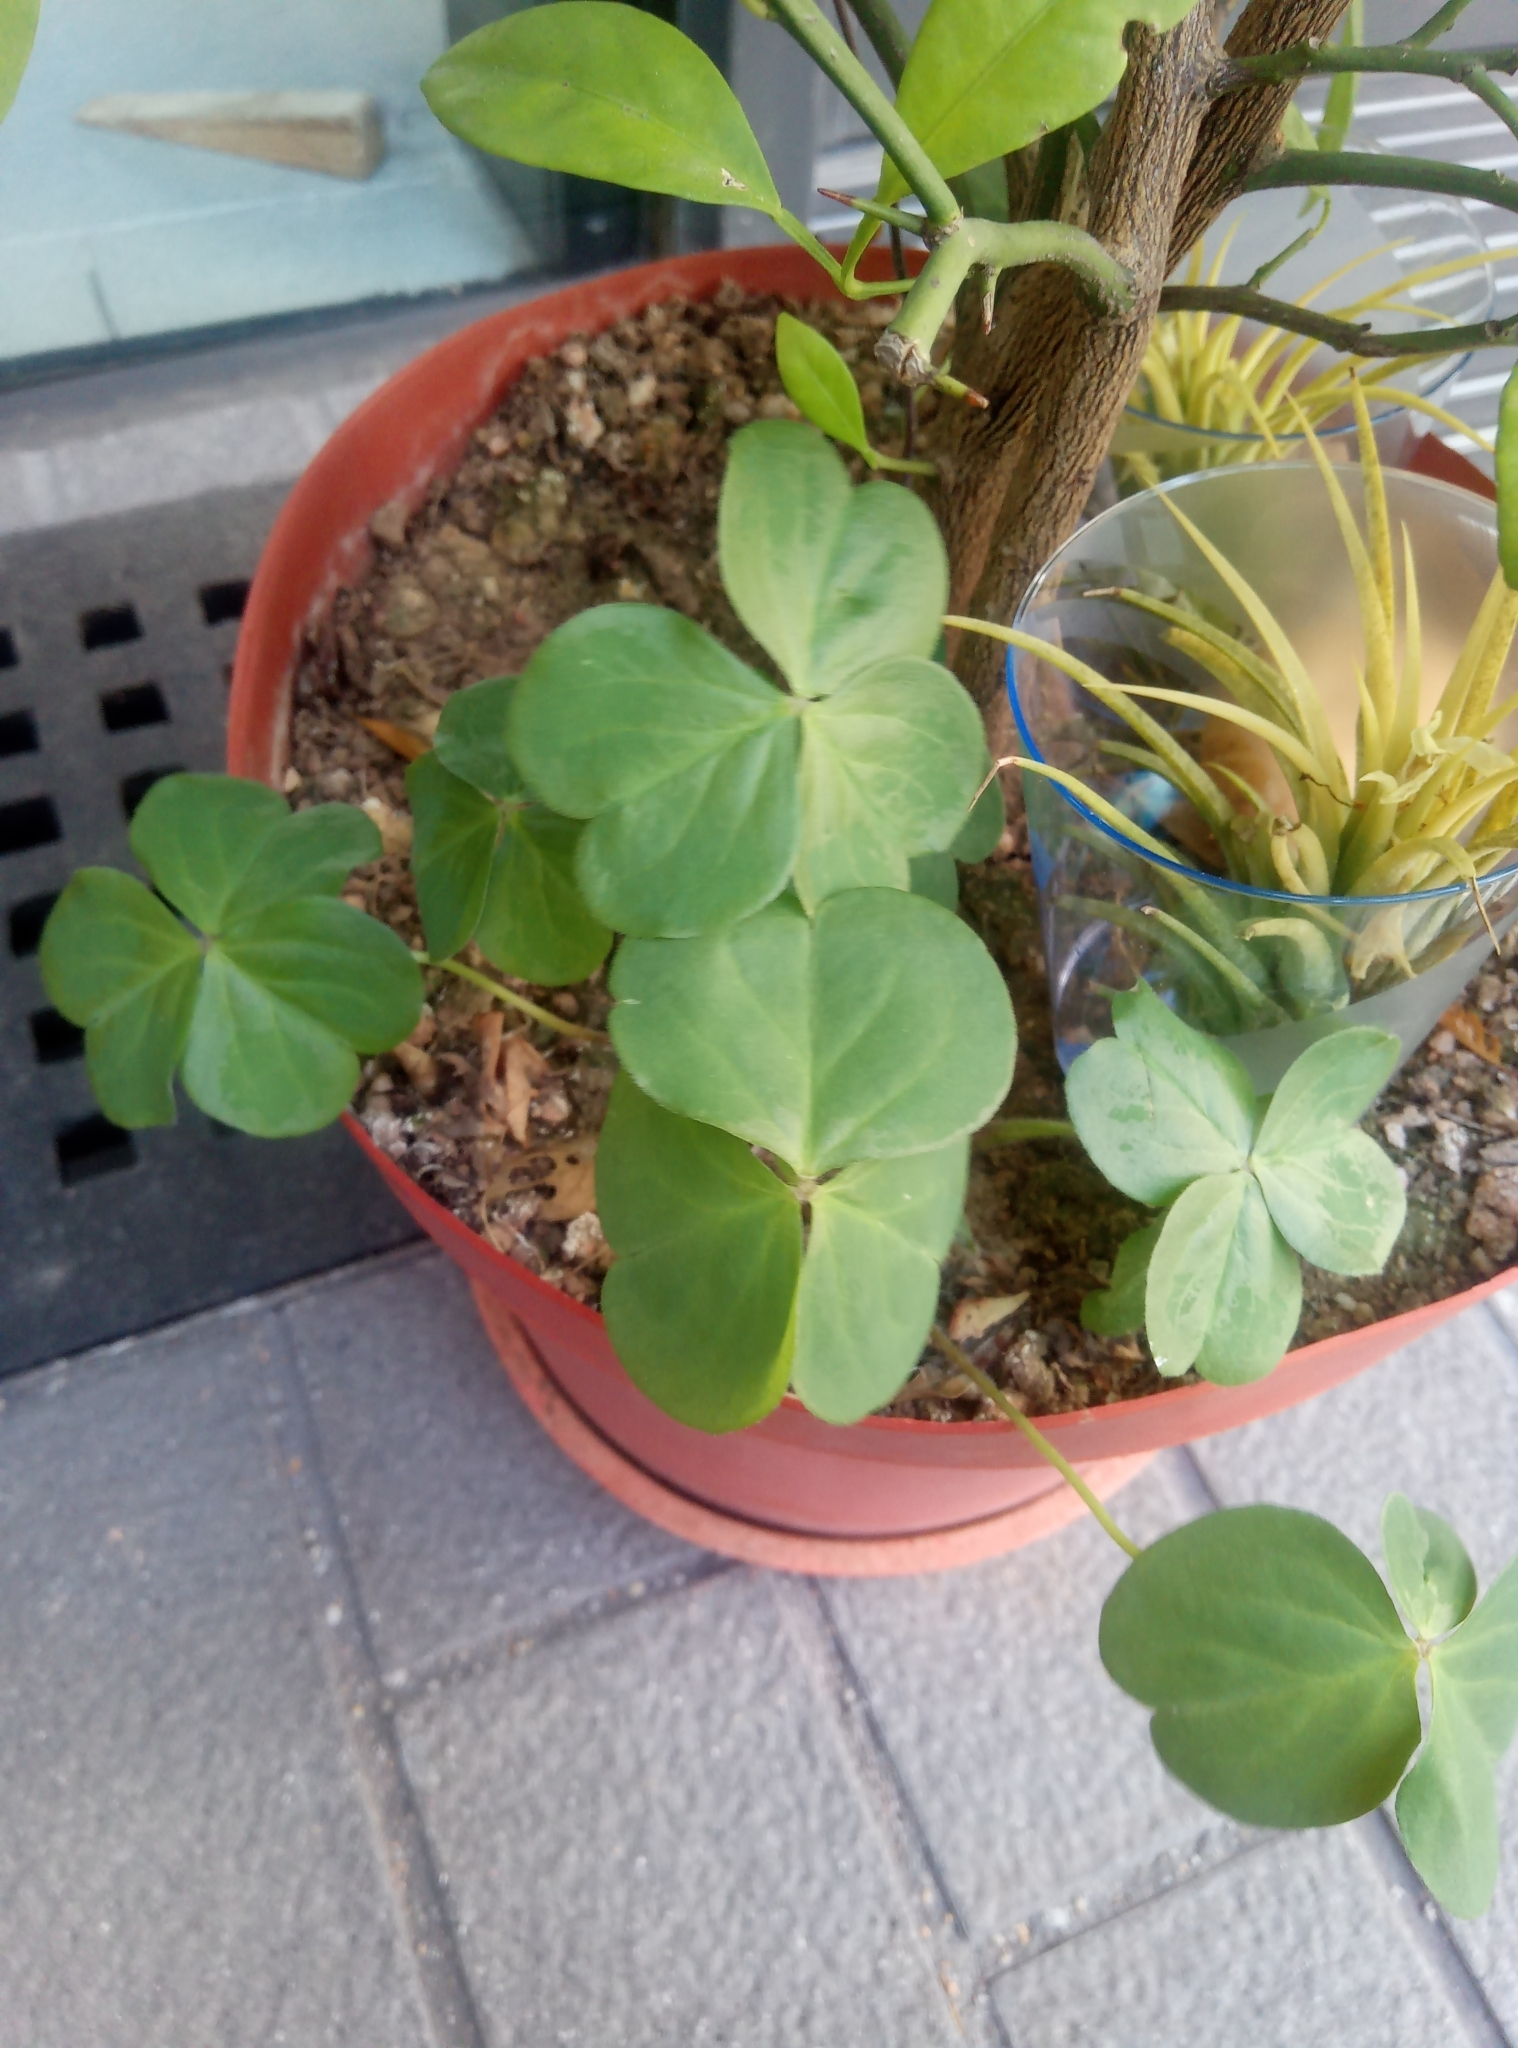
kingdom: Plantae
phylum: Tracheophyta
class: Magnoliopsida
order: Oxalidales
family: Oxalidaceae
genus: Oxalis
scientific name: Oxalis debilis
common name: Large-flowered pink-sorrel
